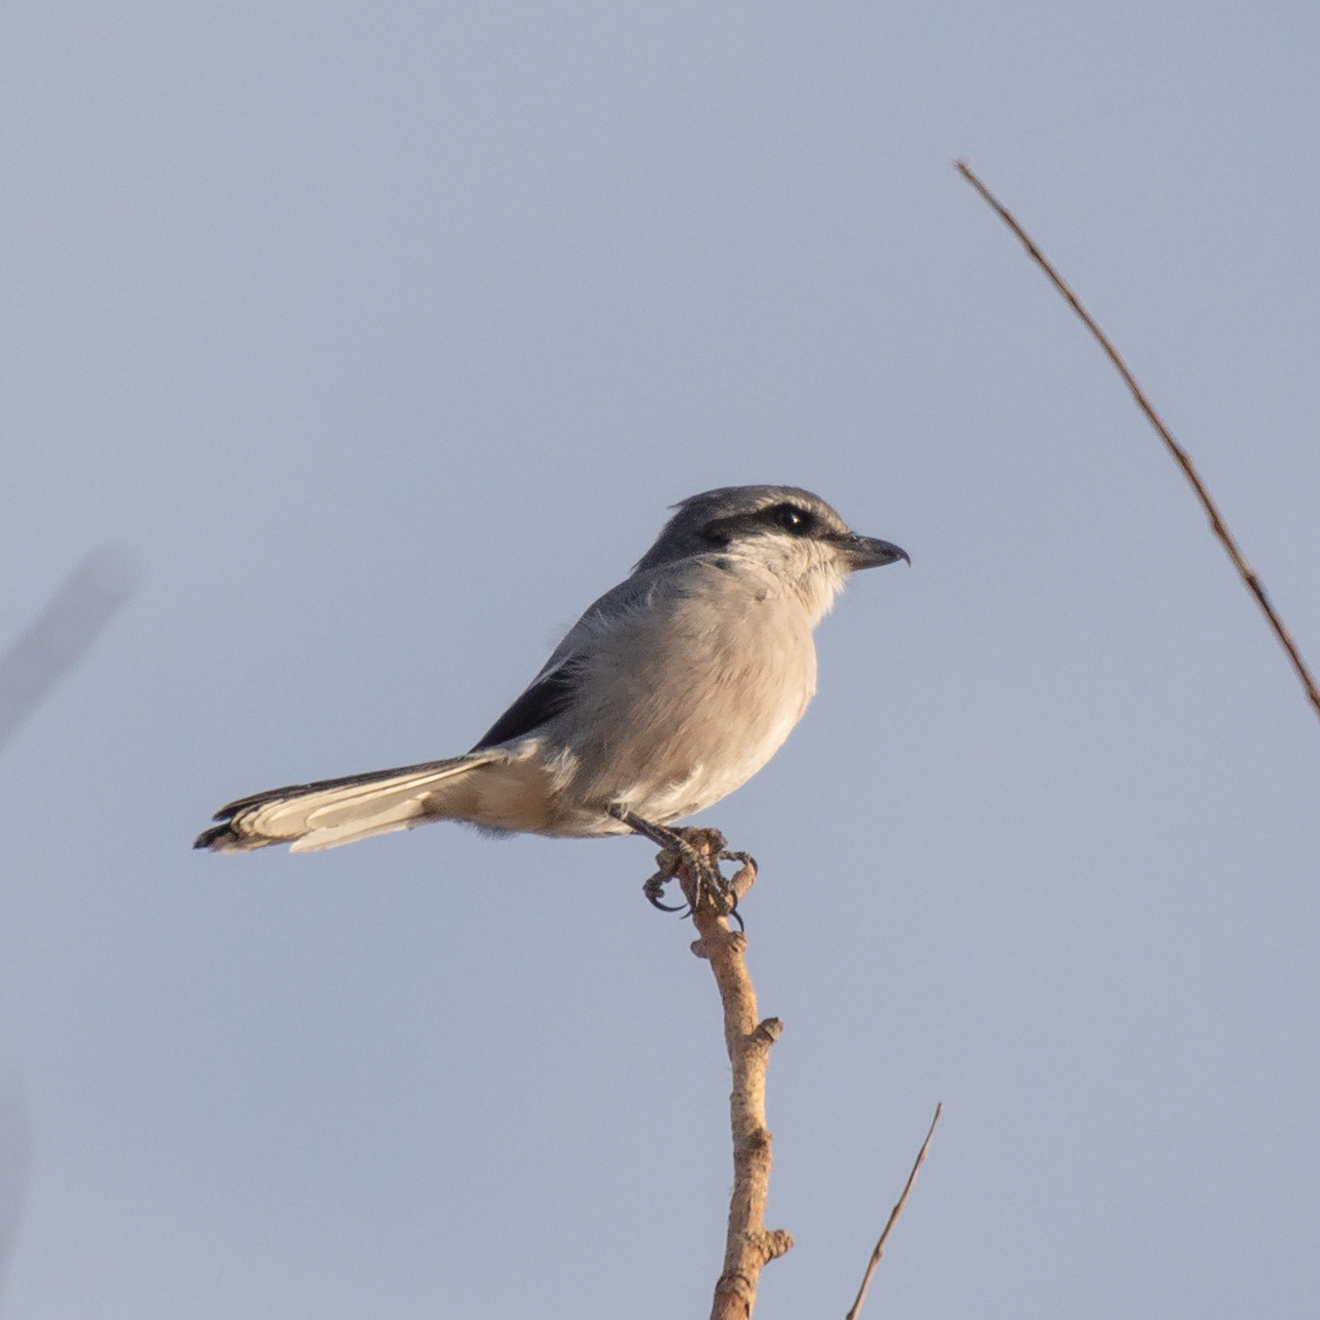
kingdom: Animalia
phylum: Chordata
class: Aves
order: Passeriformes
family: Laniidae
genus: Lanius
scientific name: Lanius meridionalis
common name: Iberian grey shrike
